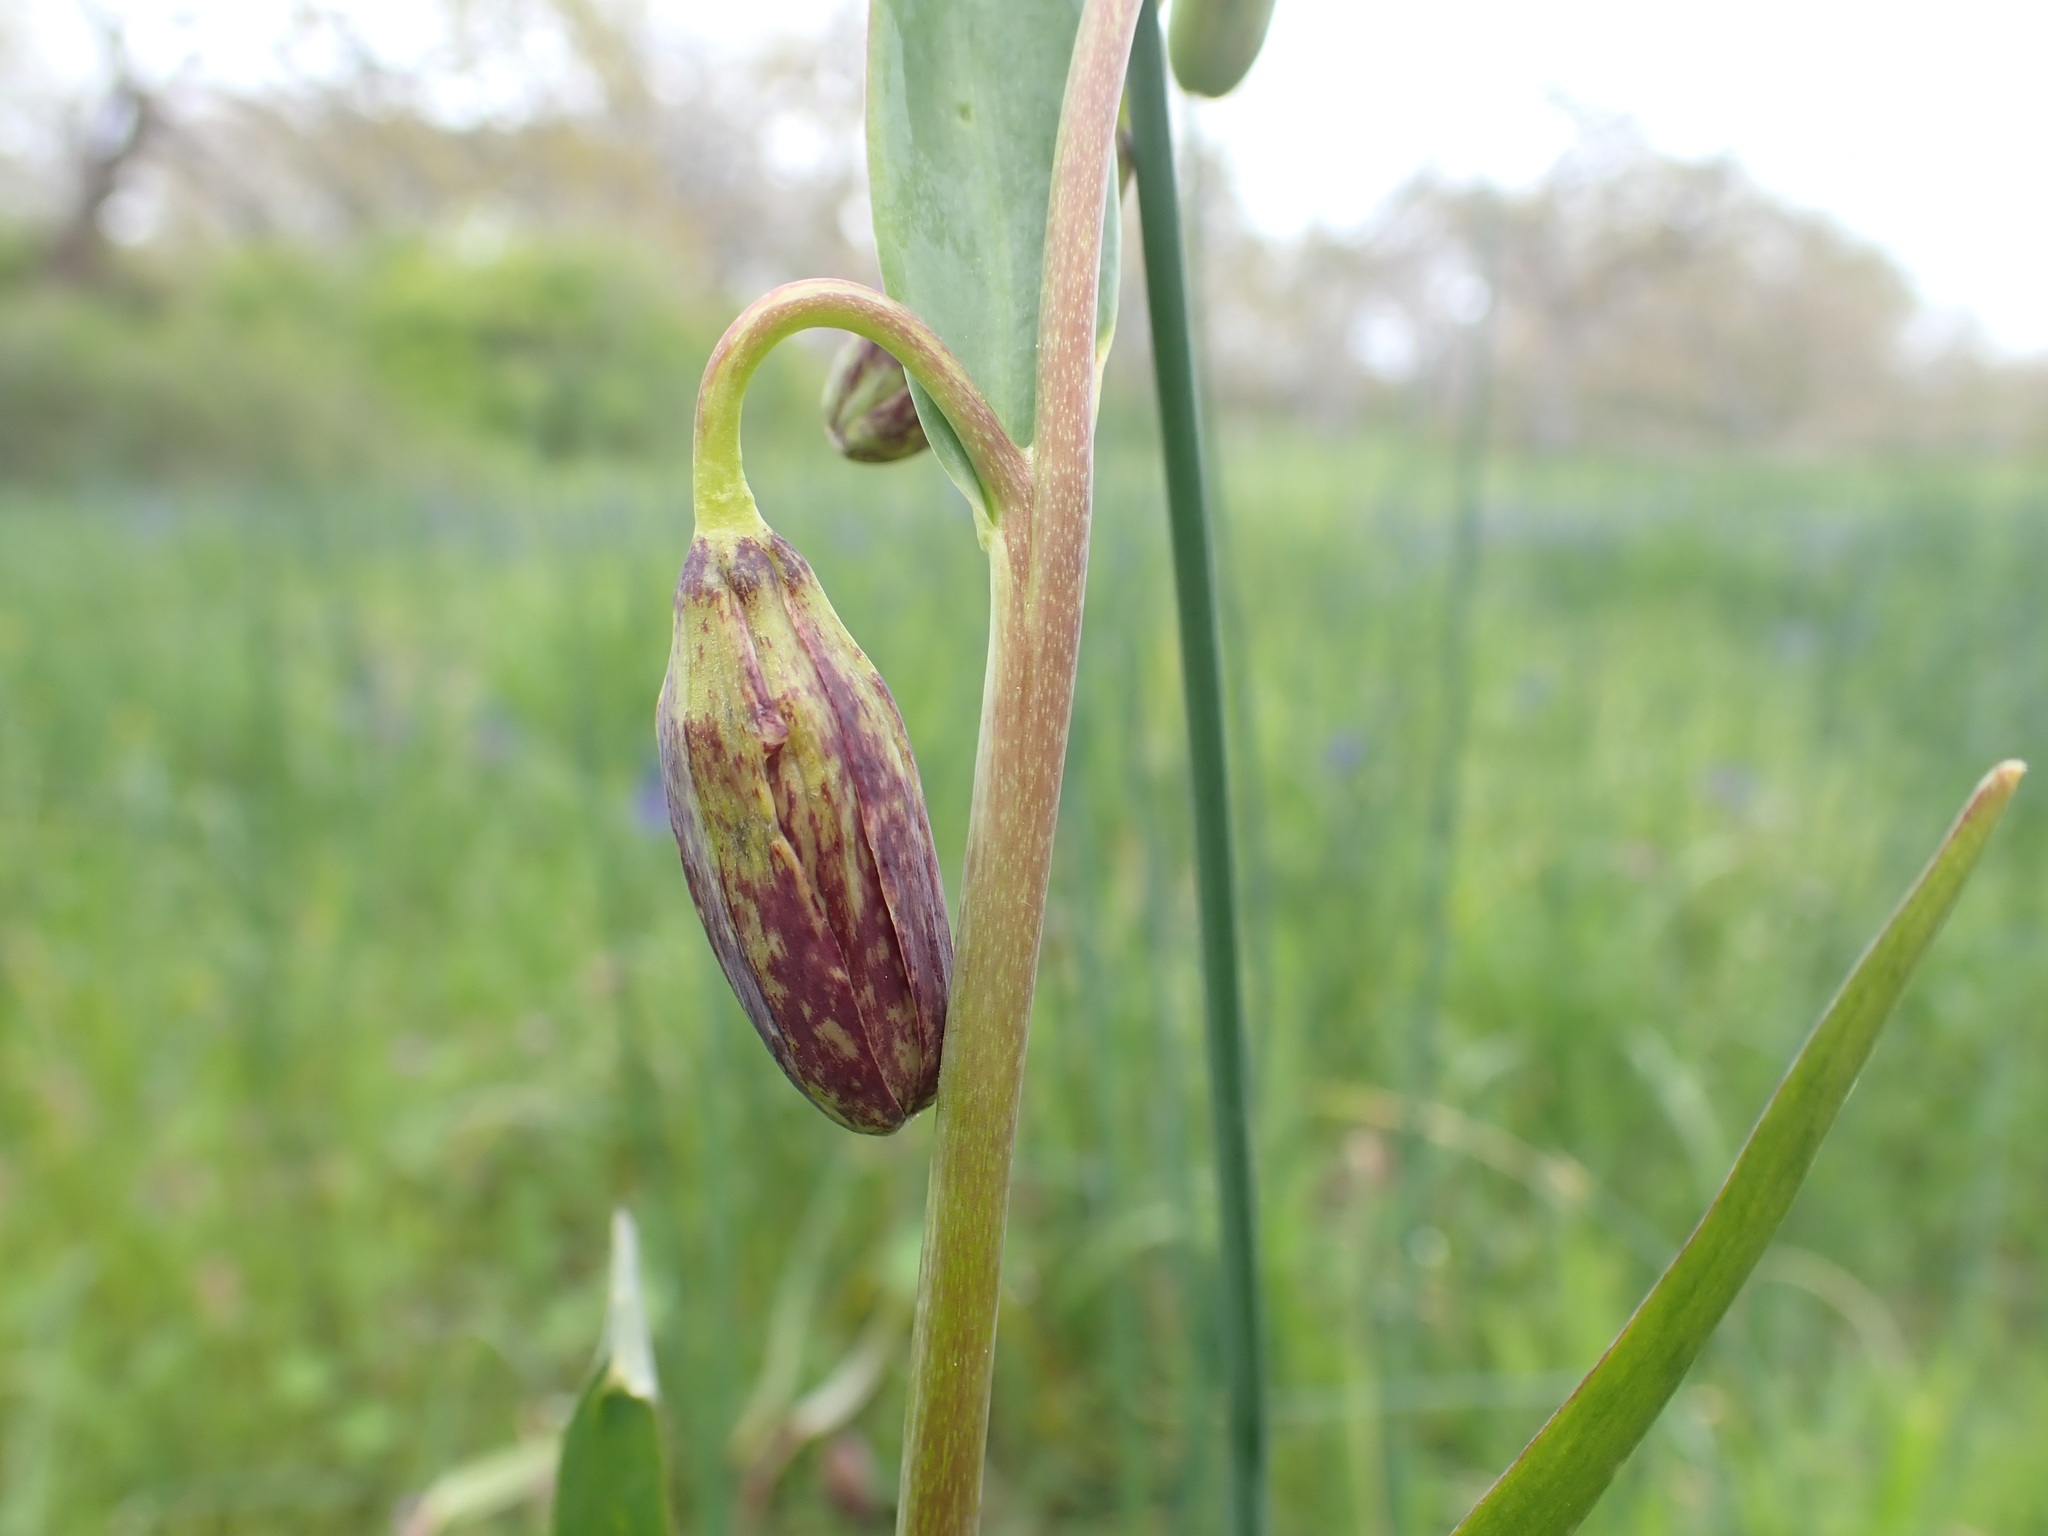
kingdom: Plantae
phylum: Tracheophyta
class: Liliopsida
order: Liliales
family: Liliaceae
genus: Fritillaria
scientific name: Fritillaria affinis
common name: Ojai fritillary
